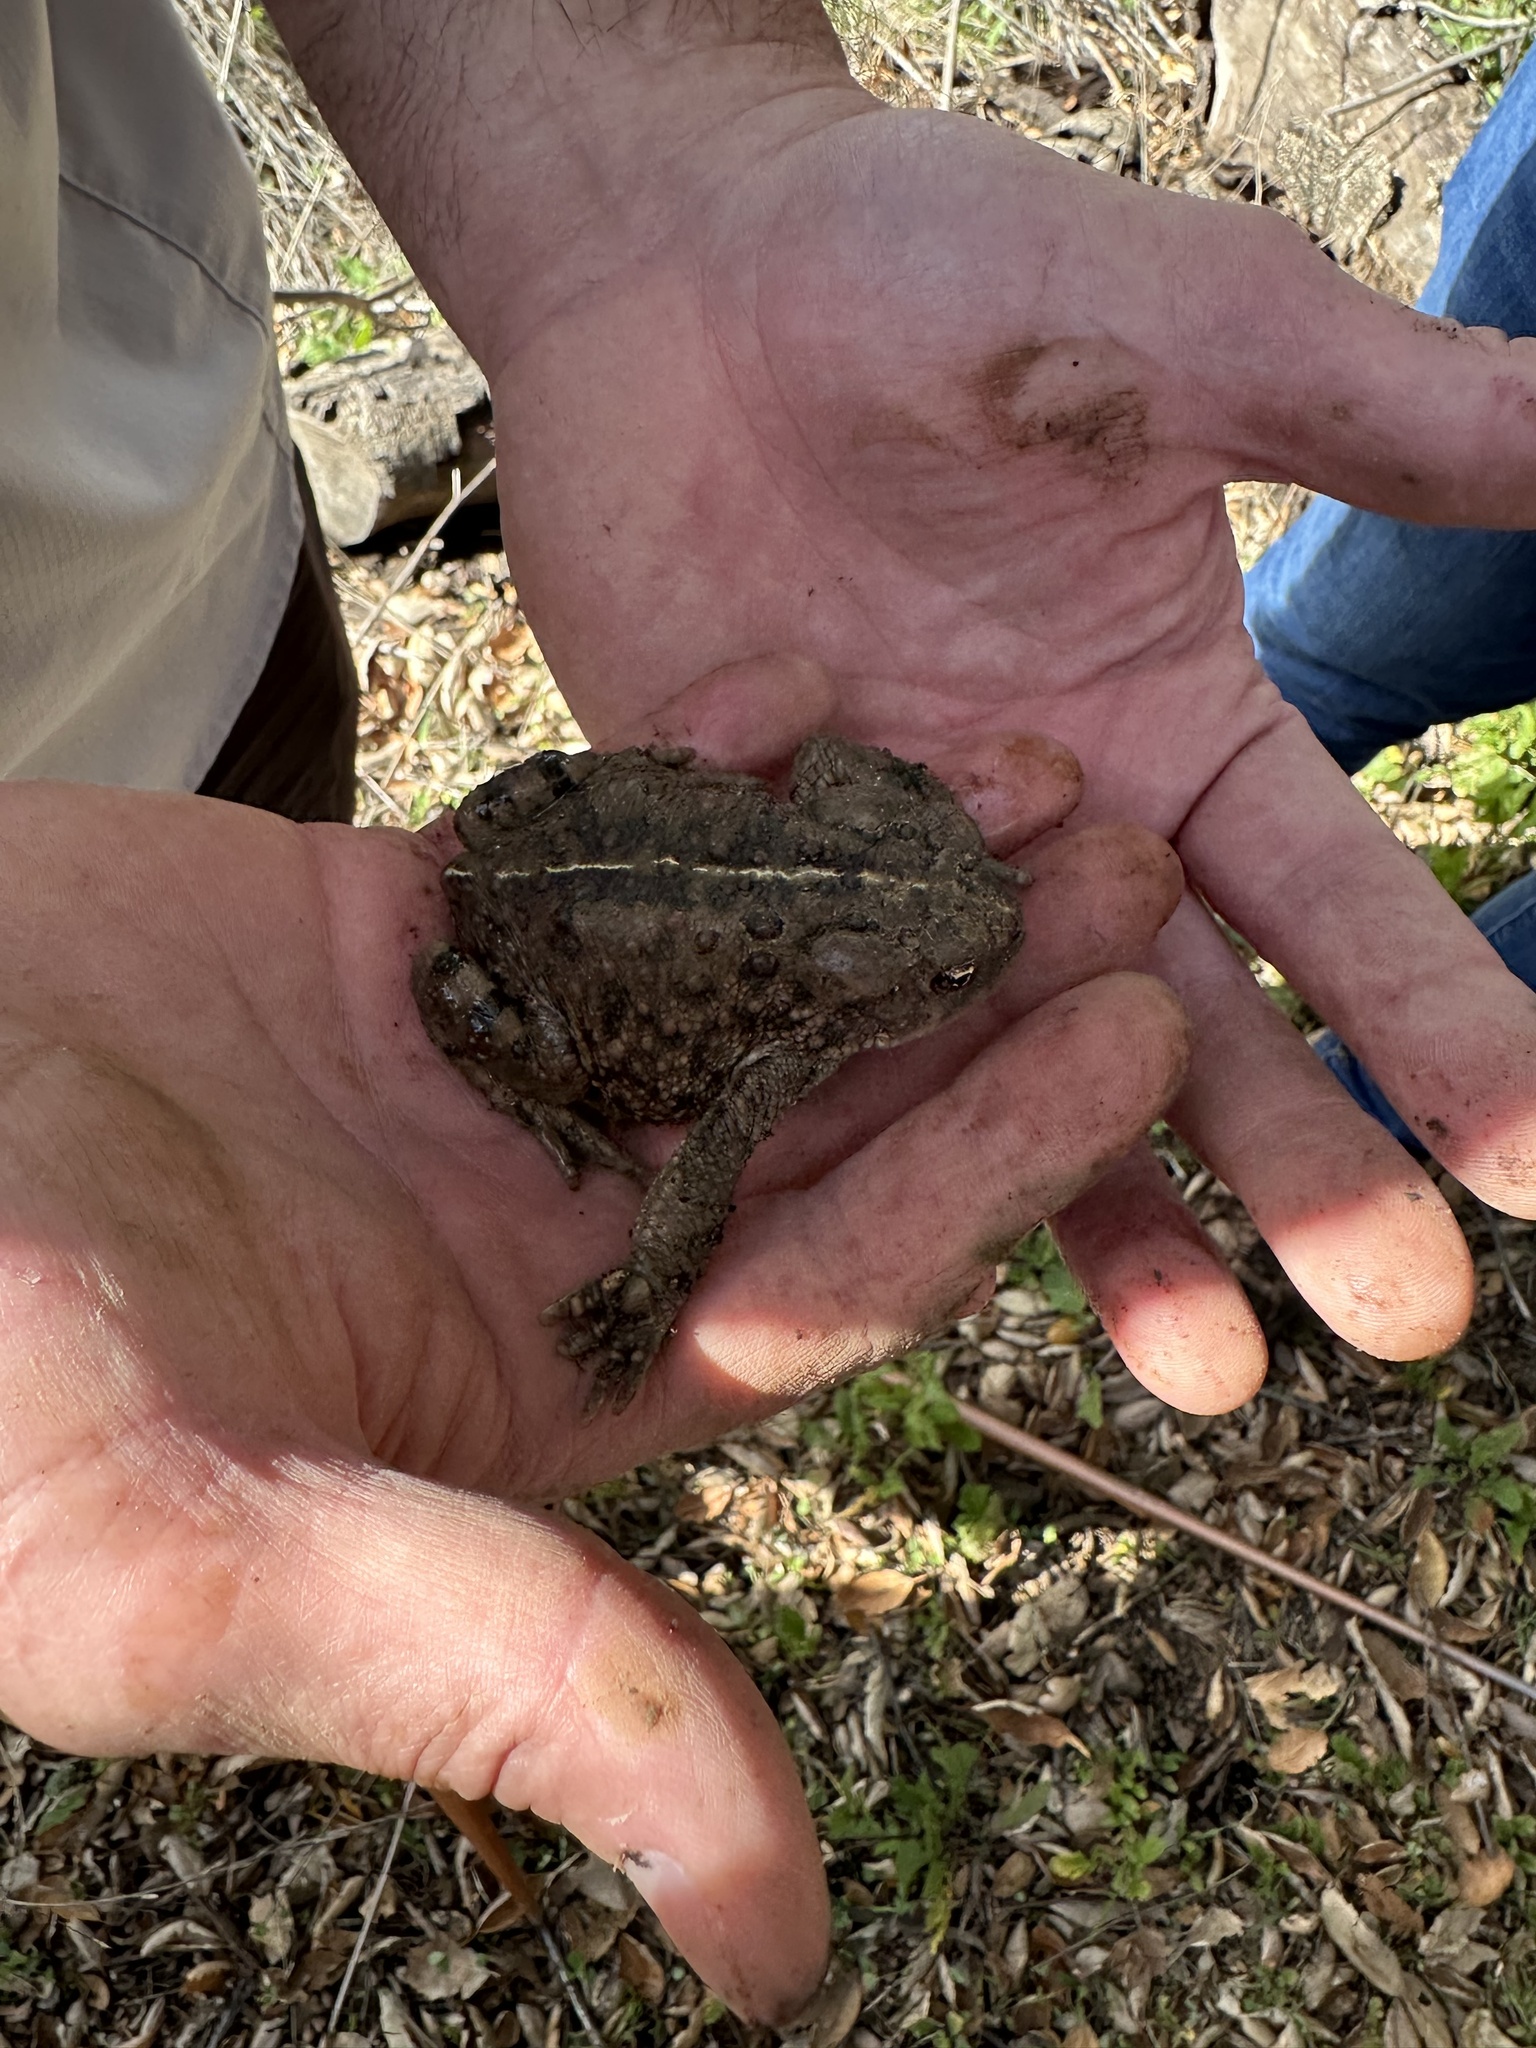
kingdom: Animalia
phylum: Chordata
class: Amphibia
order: Anura
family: Bufonidae
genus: Anaxyrus
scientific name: Anaxyrus boreas
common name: Western toad
